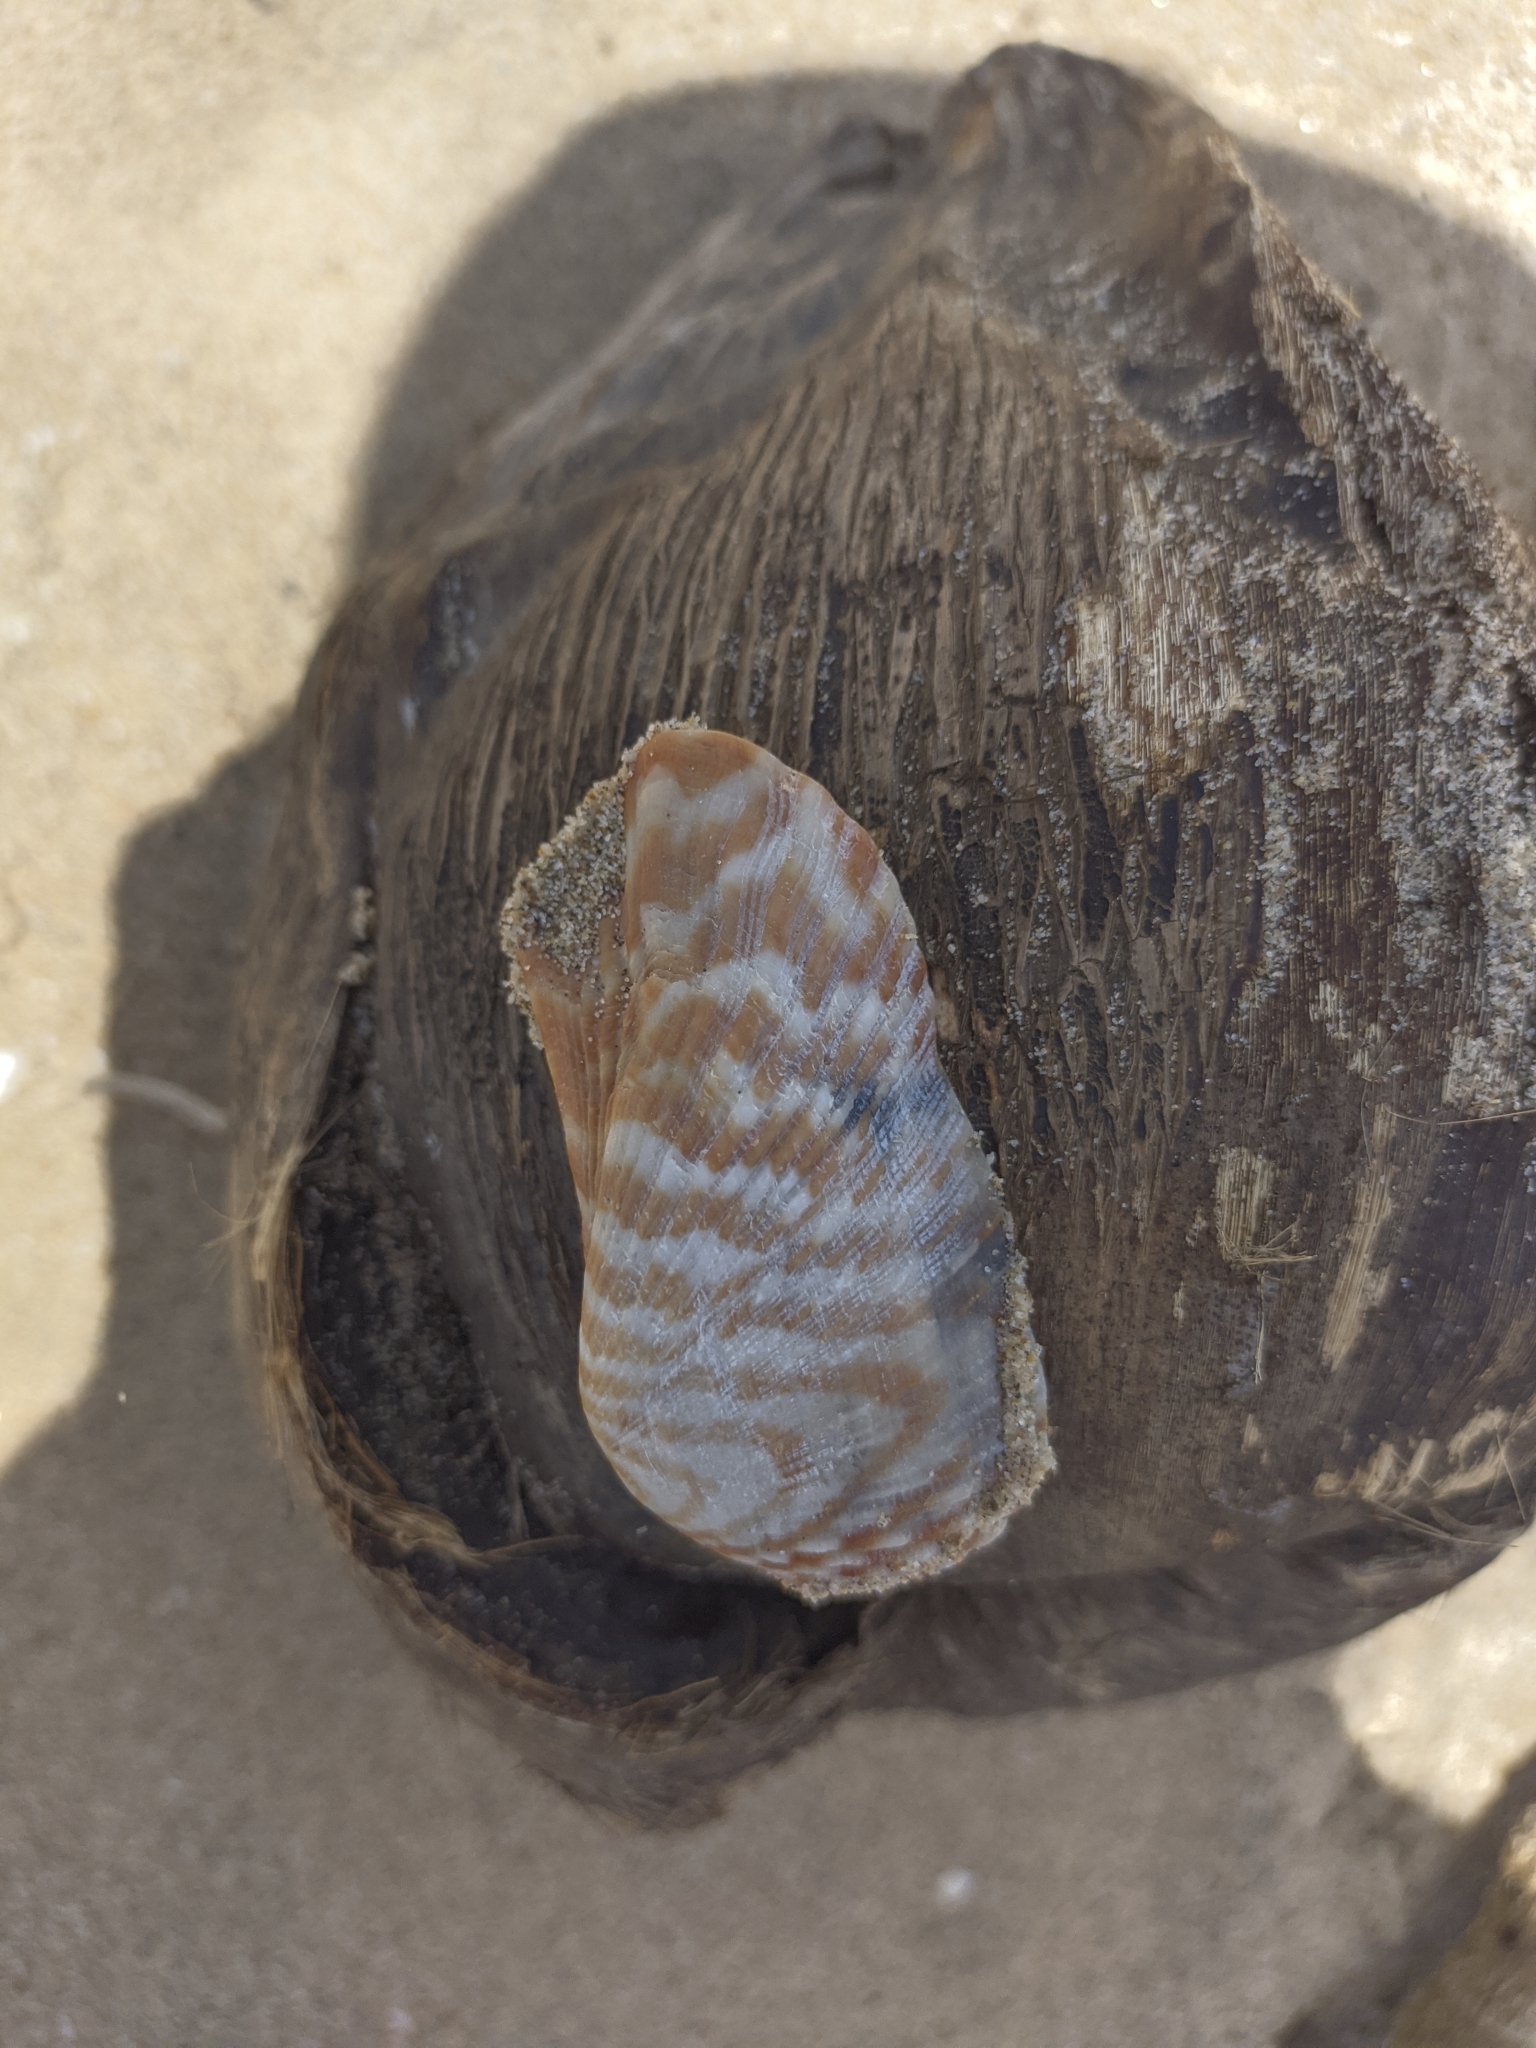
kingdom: Animalia
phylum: Mollusca
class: Bivalvia
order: Arcida
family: Arcidae
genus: Arca
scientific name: Arca zebra
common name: Atlantic turkey wing
